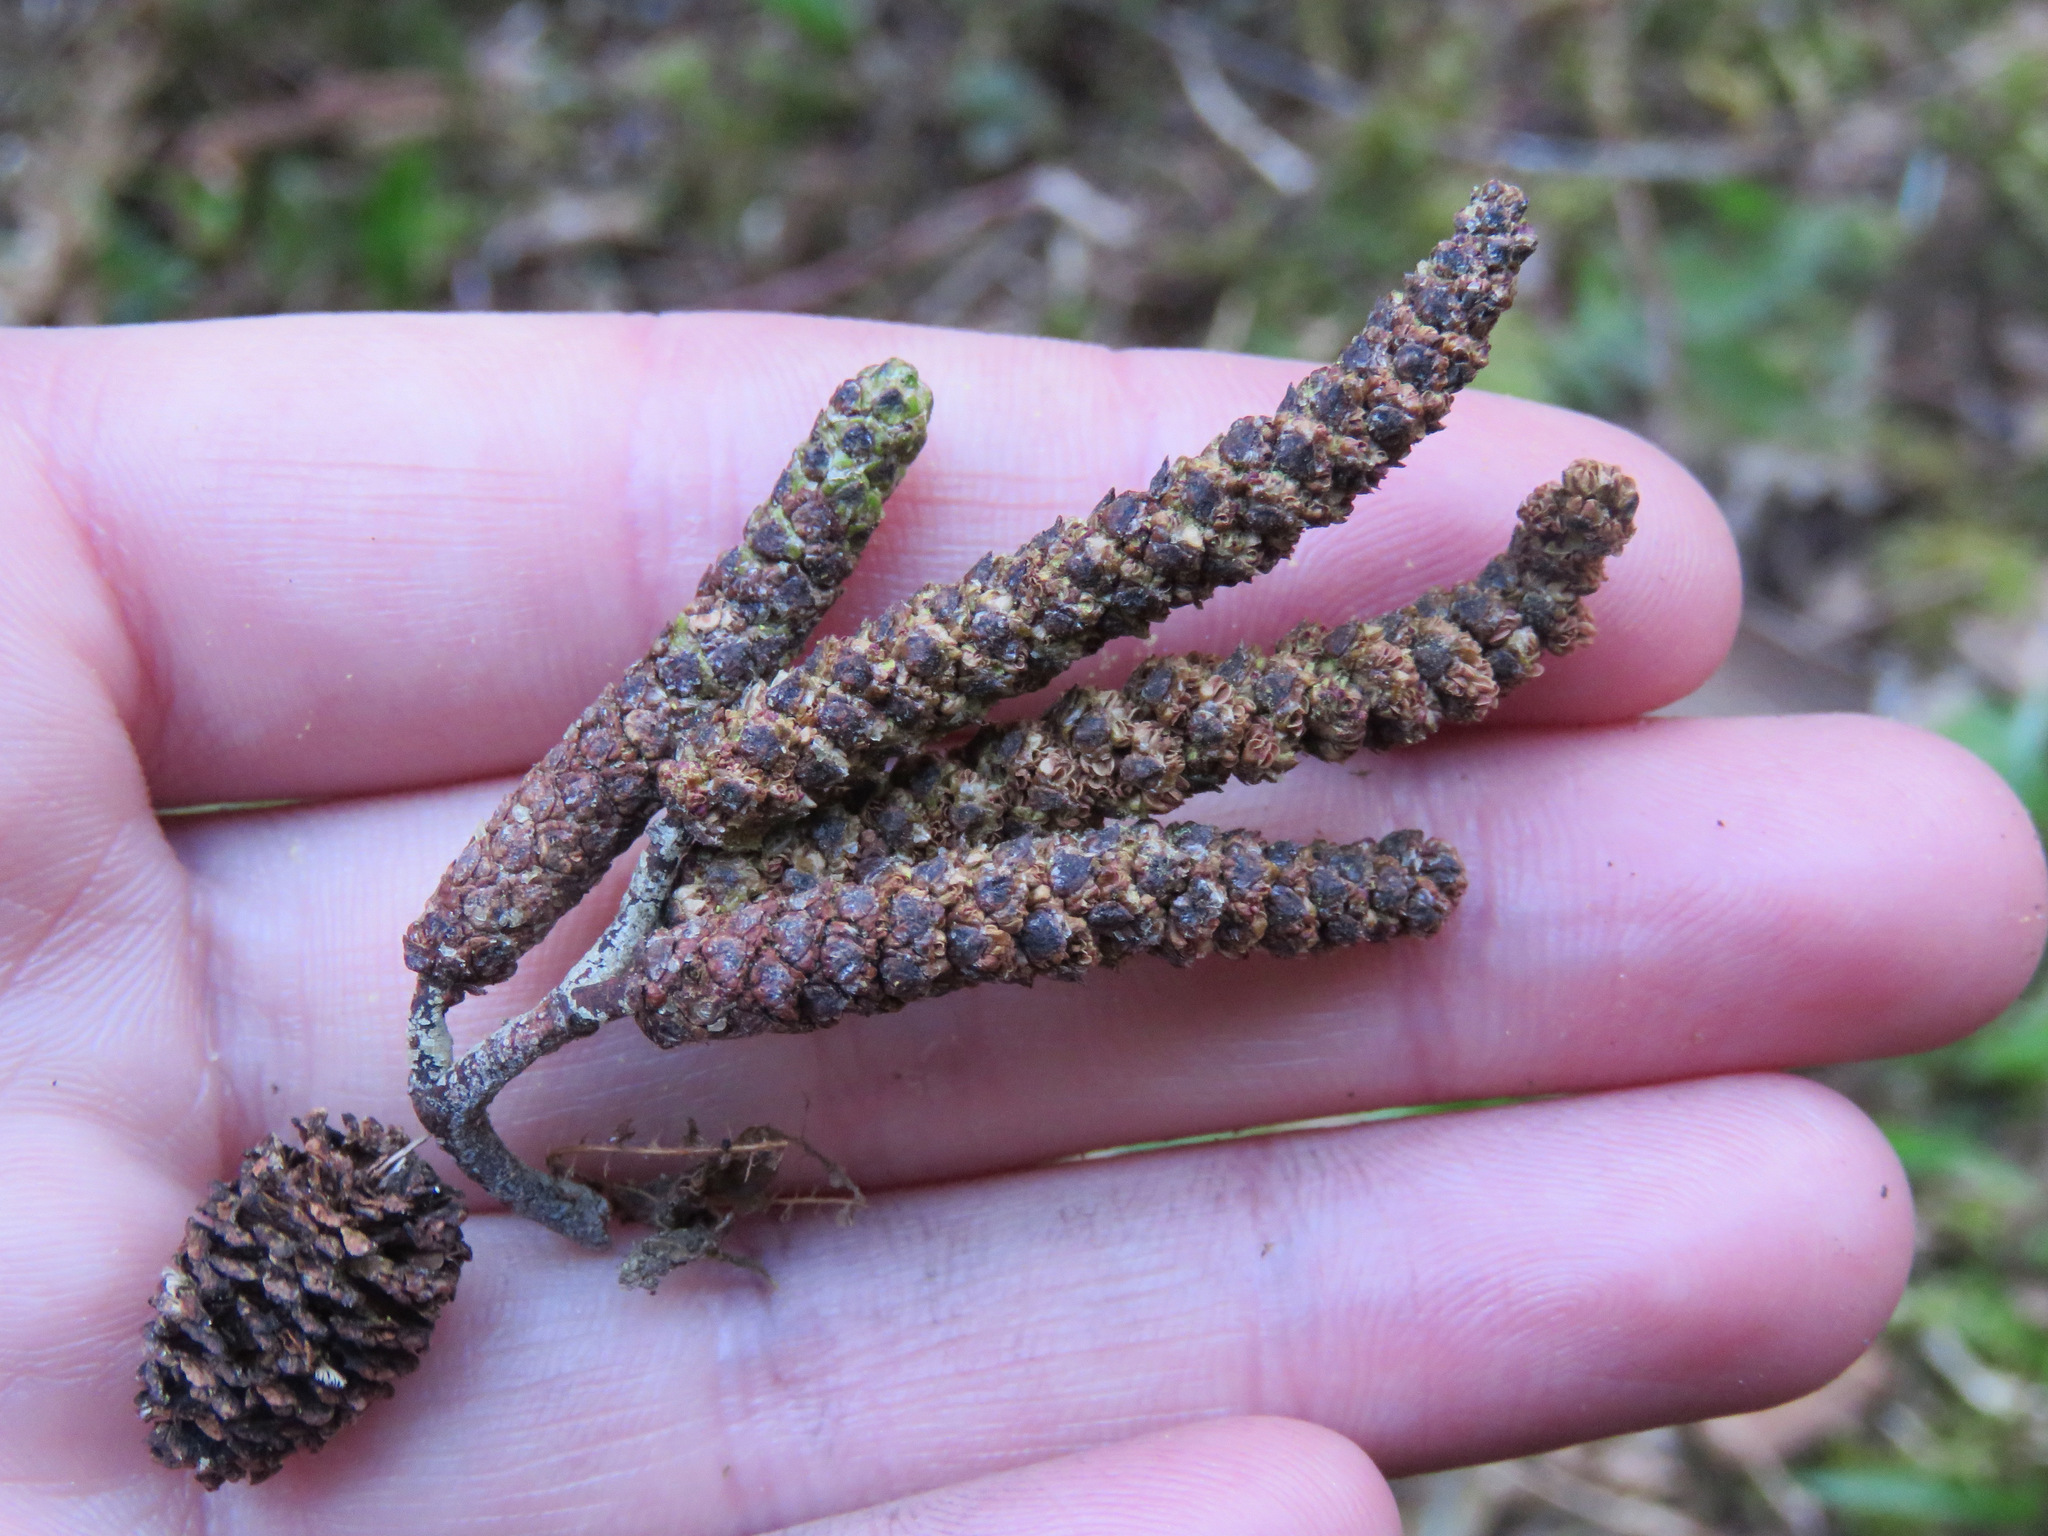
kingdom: Plantae
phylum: Tracheophyta
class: Magnoliopsida
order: Fagales
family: Betulaceae
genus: Alnus
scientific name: Alnus rubra
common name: Red alder
